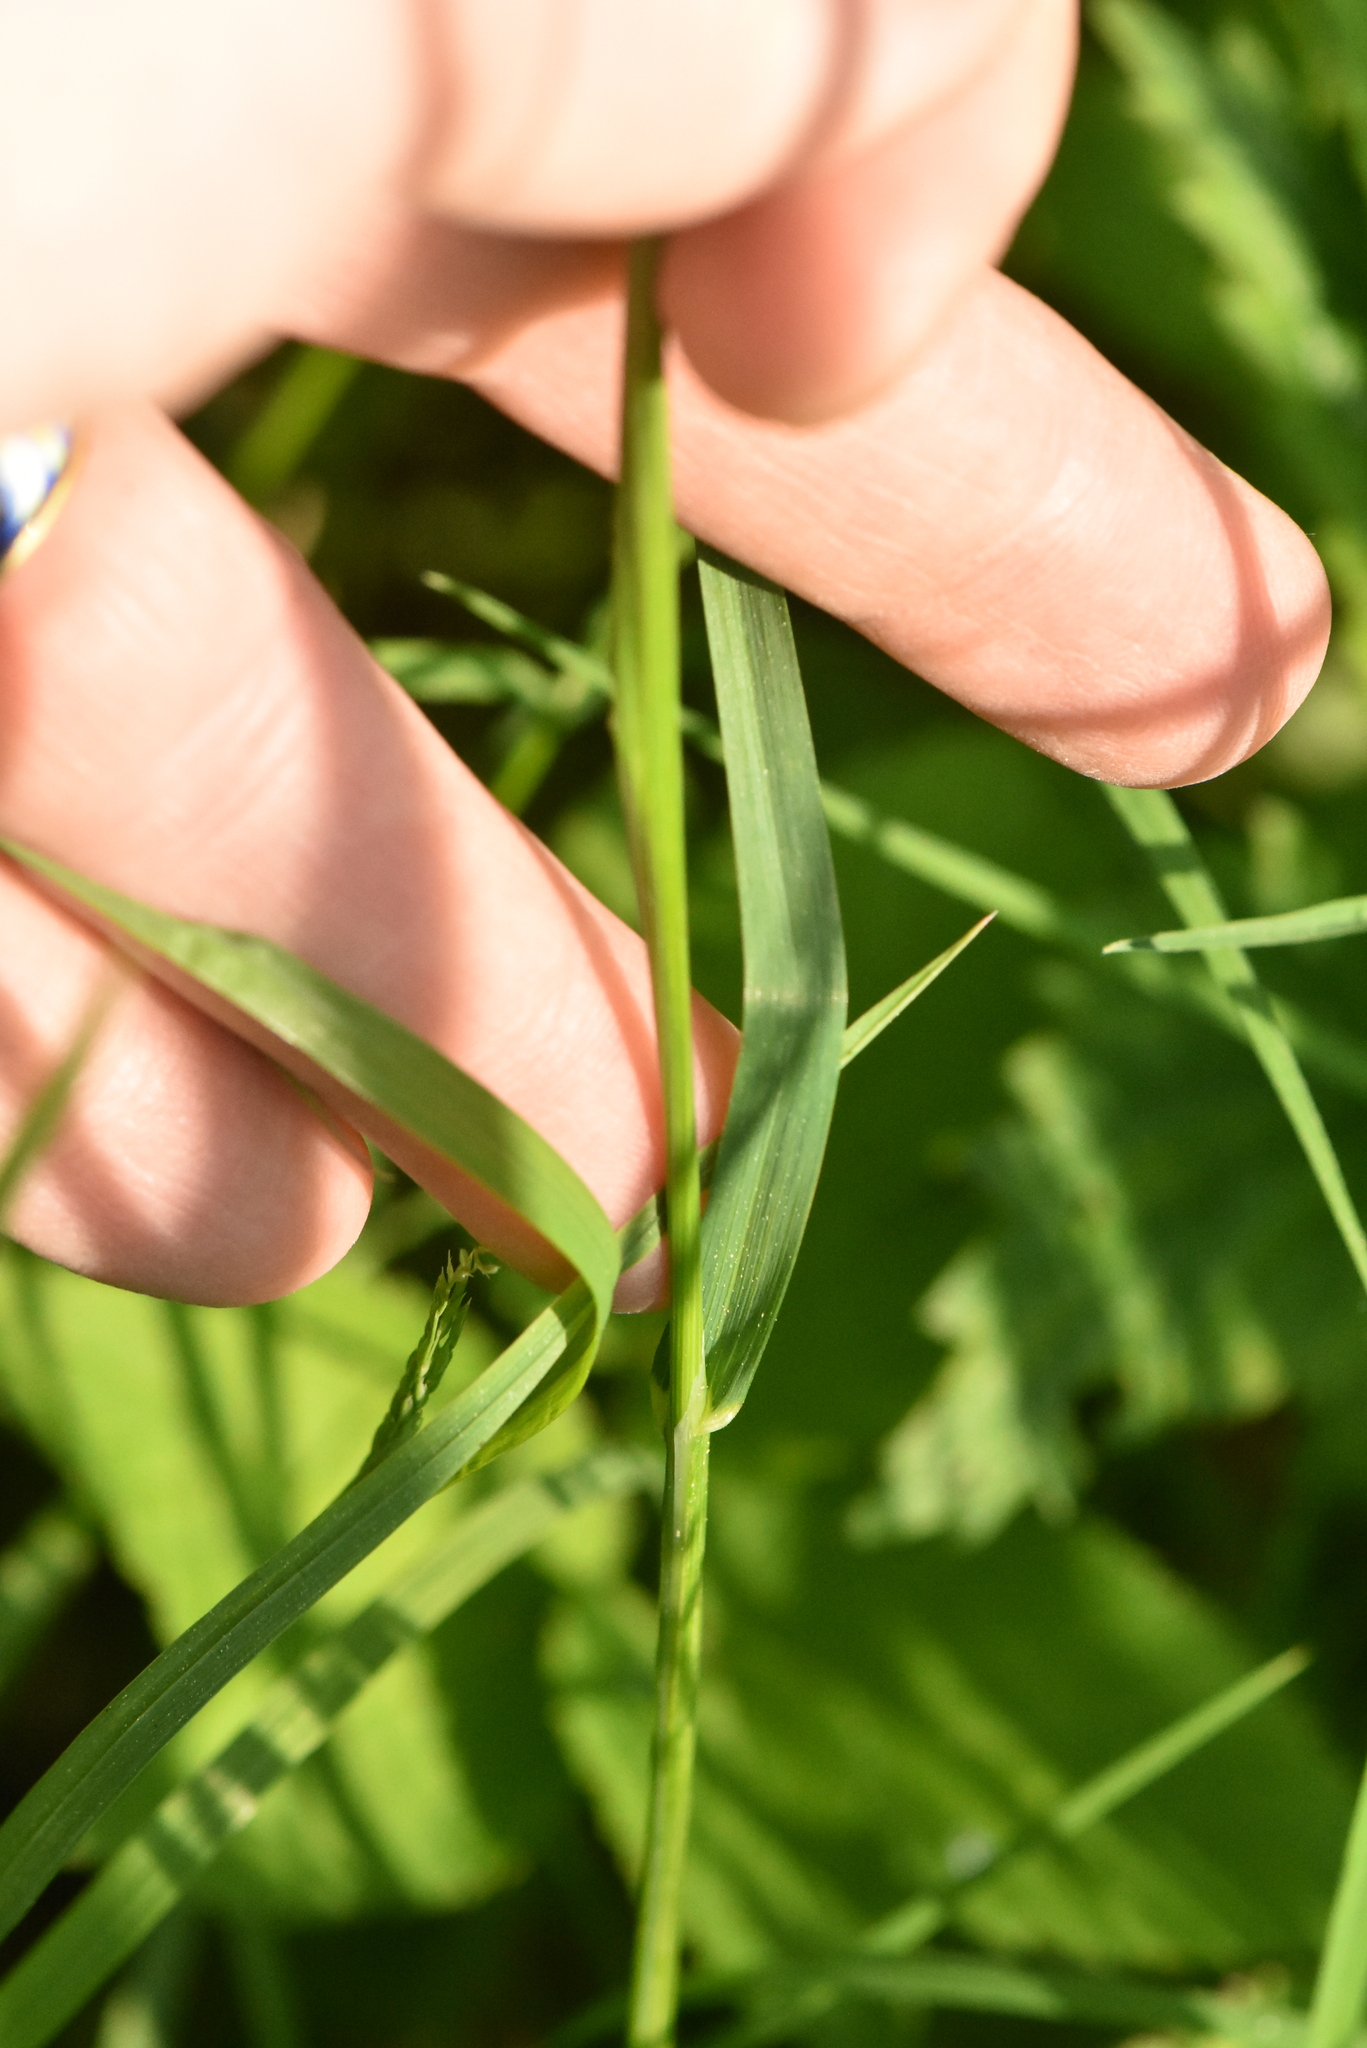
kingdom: Plantae
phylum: Tracheophyta
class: Liliopsida
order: Poales
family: Poaceae
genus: Poa
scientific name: Poa trivialis
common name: Rough bluegrass
